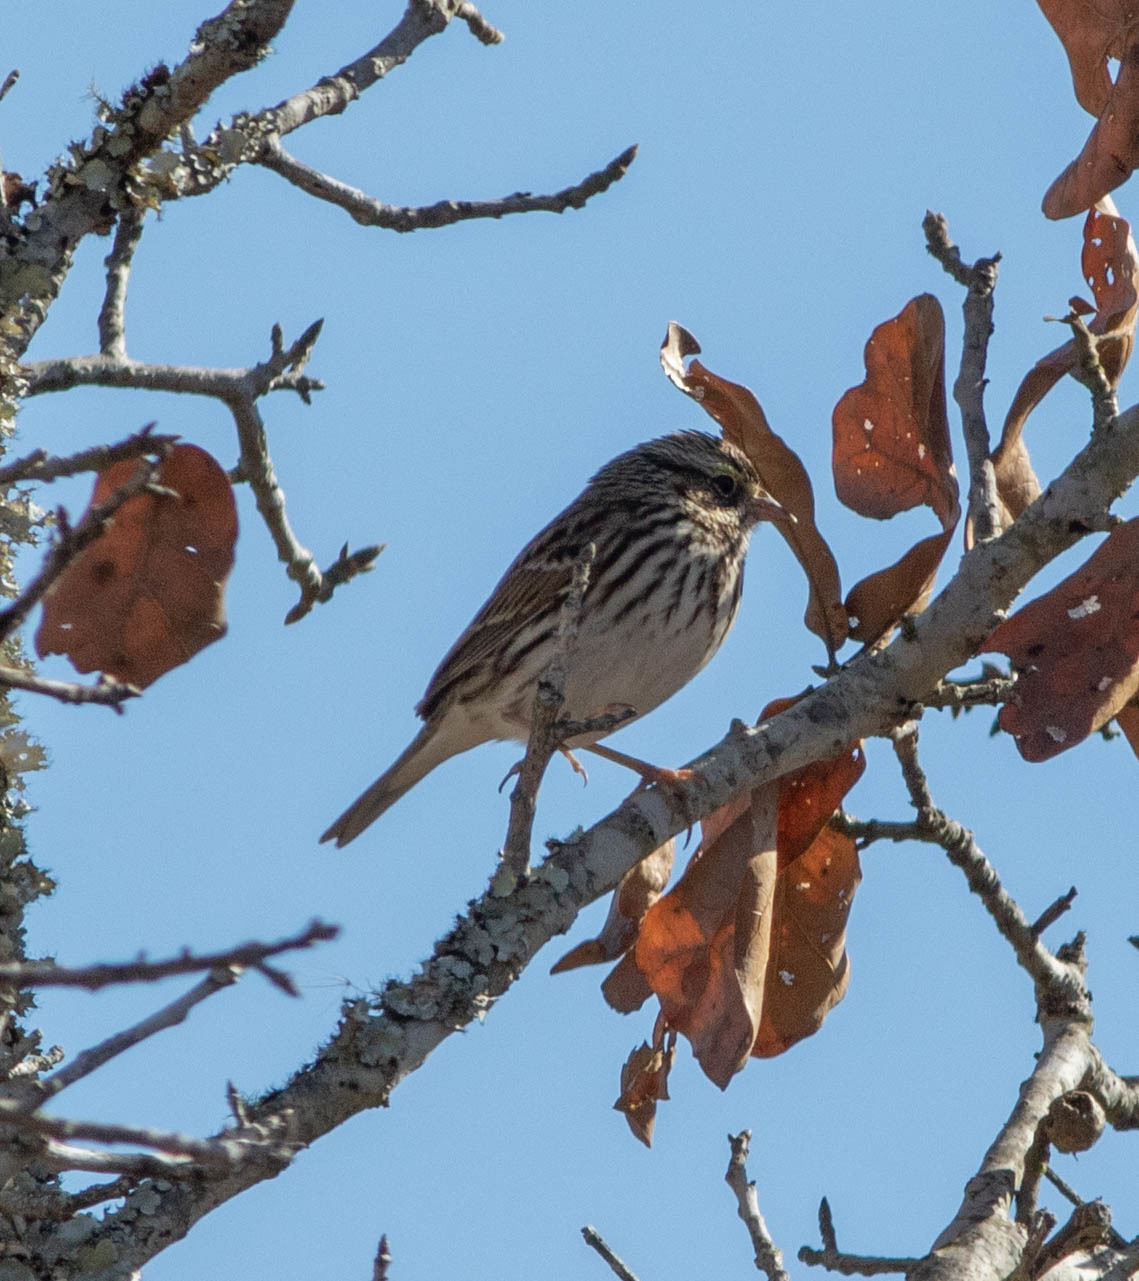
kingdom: Animalia
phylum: Chordata
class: Aves
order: Passeriformes
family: Passerellidae
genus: Passerculus
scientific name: Passerculus sandwichensis
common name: Savannah sparrow
